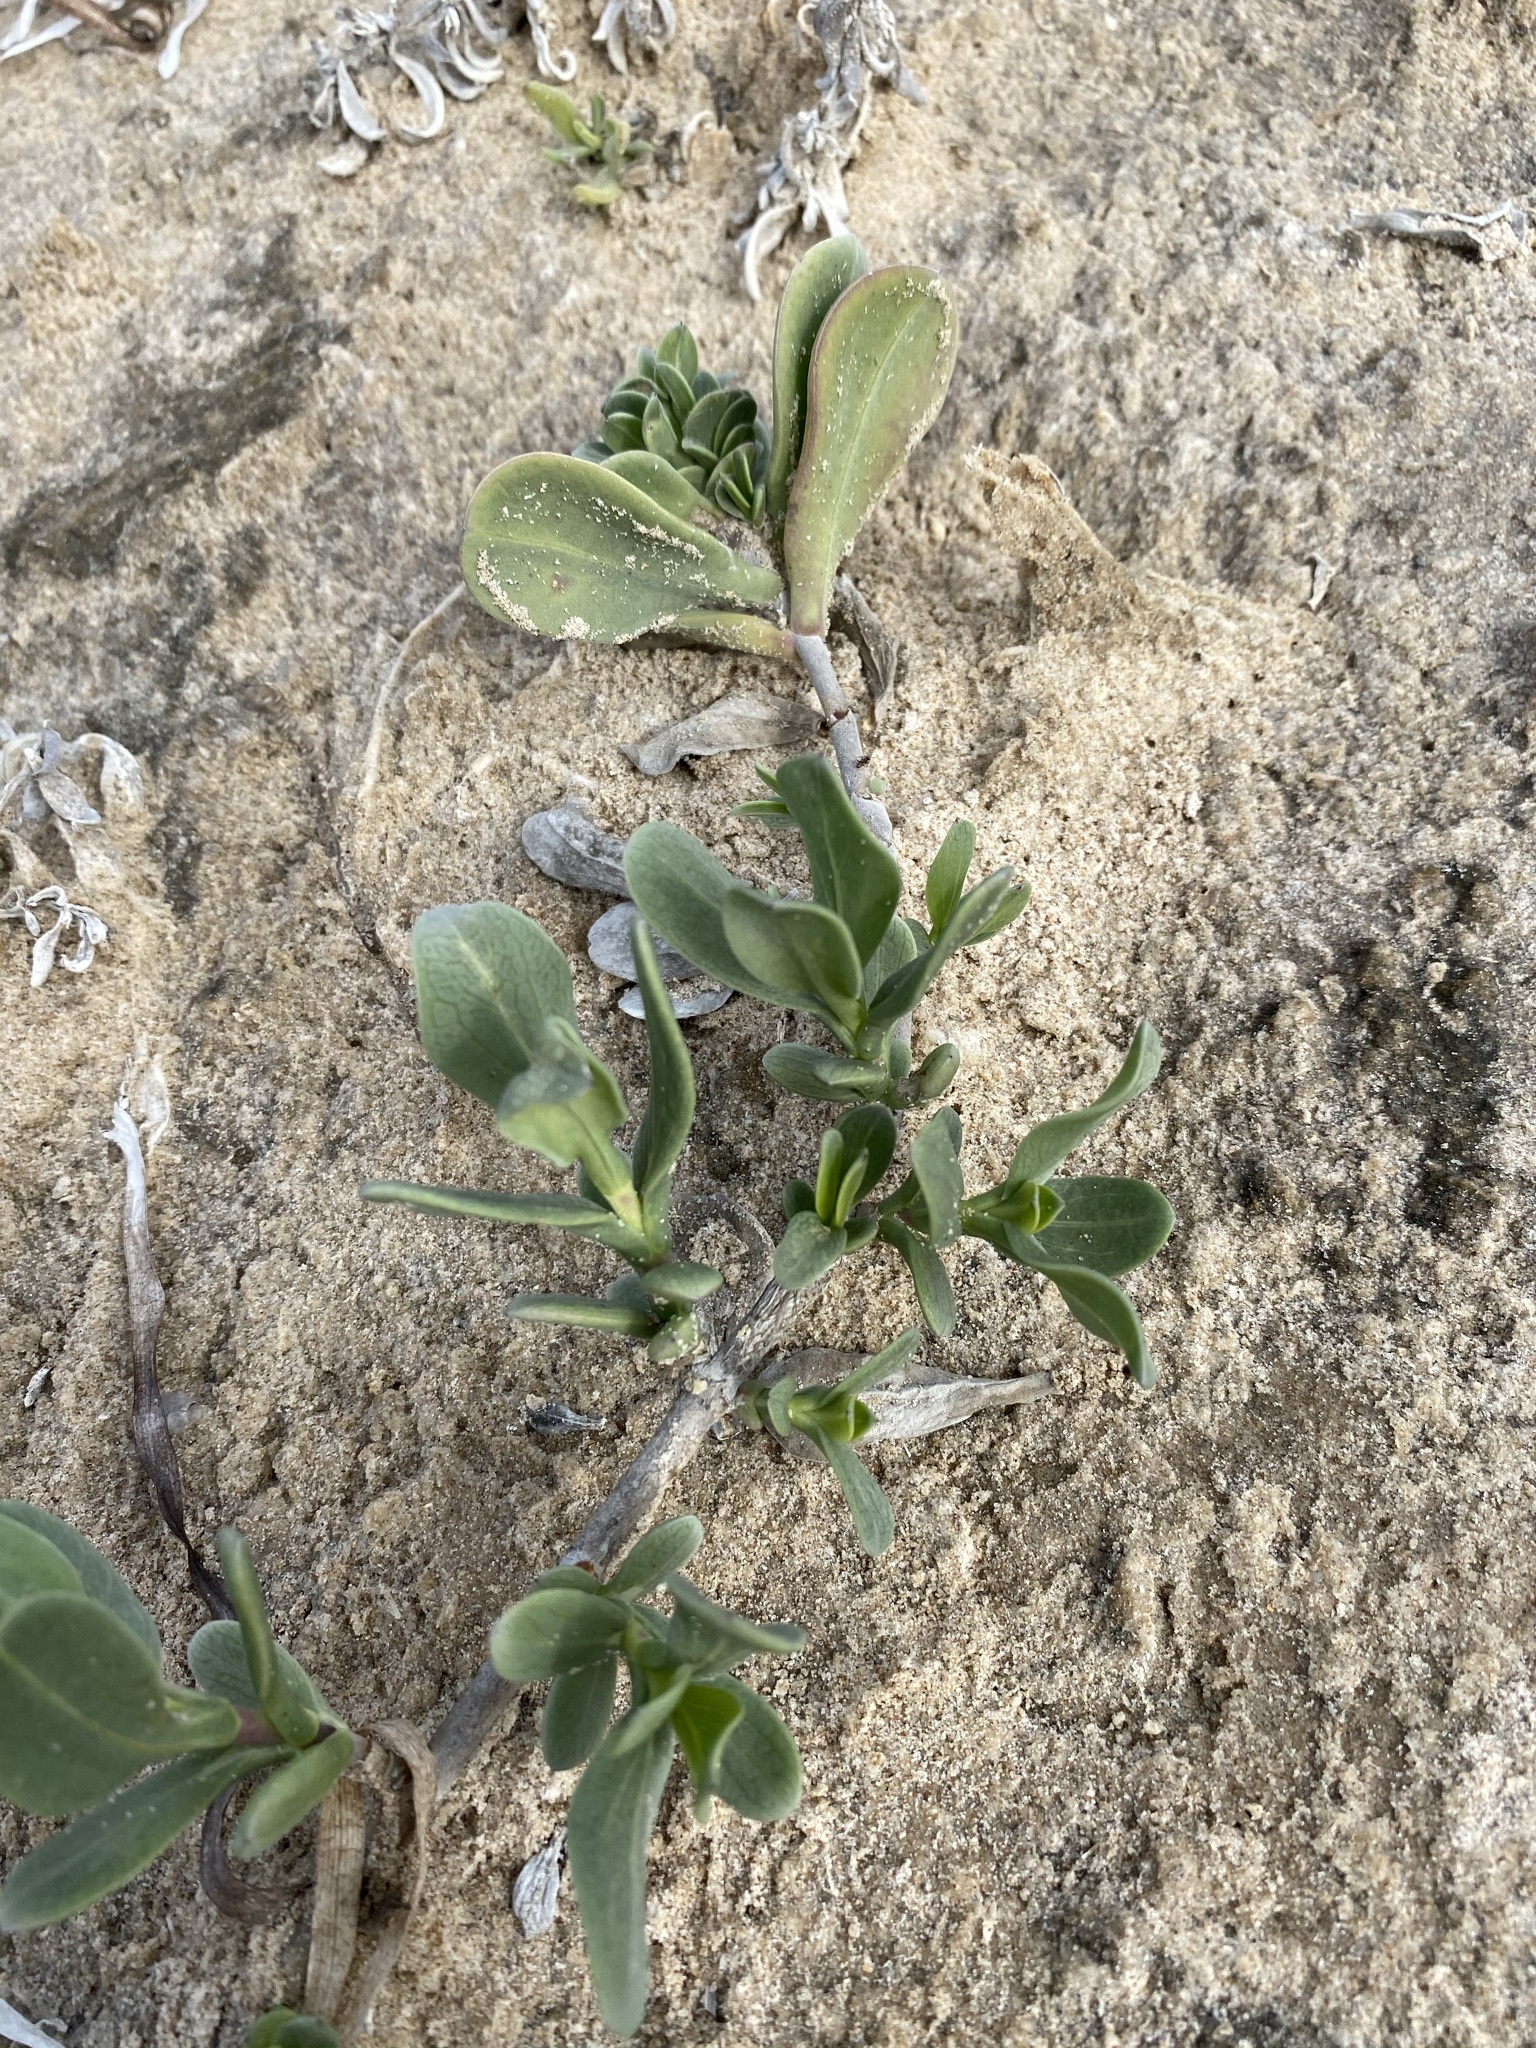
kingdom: Plantae
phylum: Tracheophyta
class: Magnoliopsida
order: Asterales
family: Asteraceae
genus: Borrichia
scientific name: Borrichia frutescens
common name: Sea oxeye
